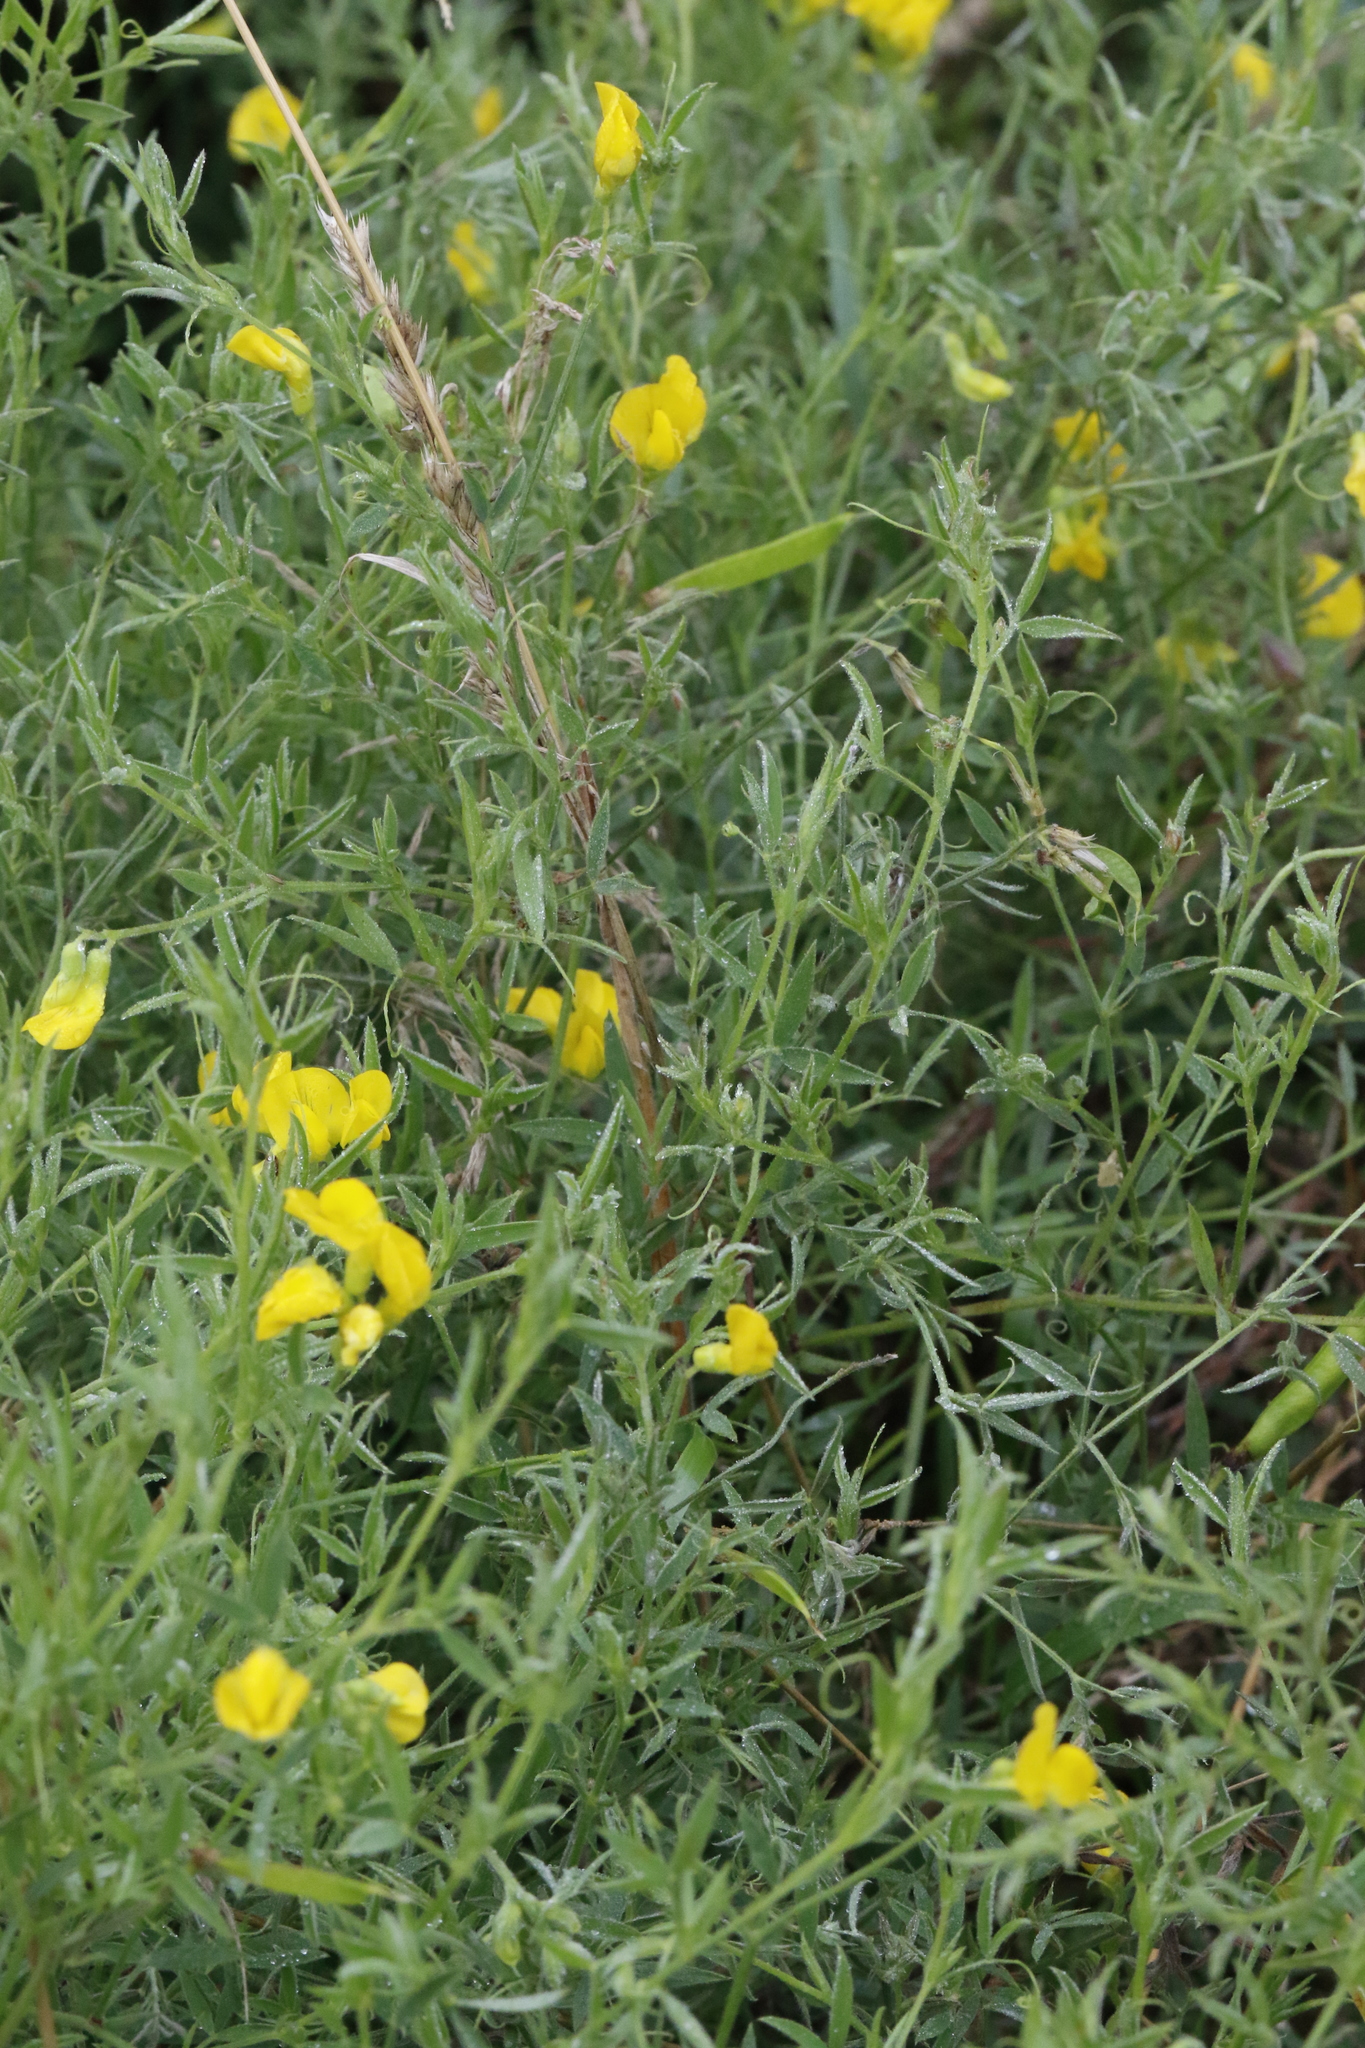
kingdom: Plantae
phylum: Tracheophyta
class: Magnoliopsida
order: Fabales
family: Fabaceae
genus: Lathyrus
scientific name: Lathyrus pratensis
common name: Meadow vetchling
